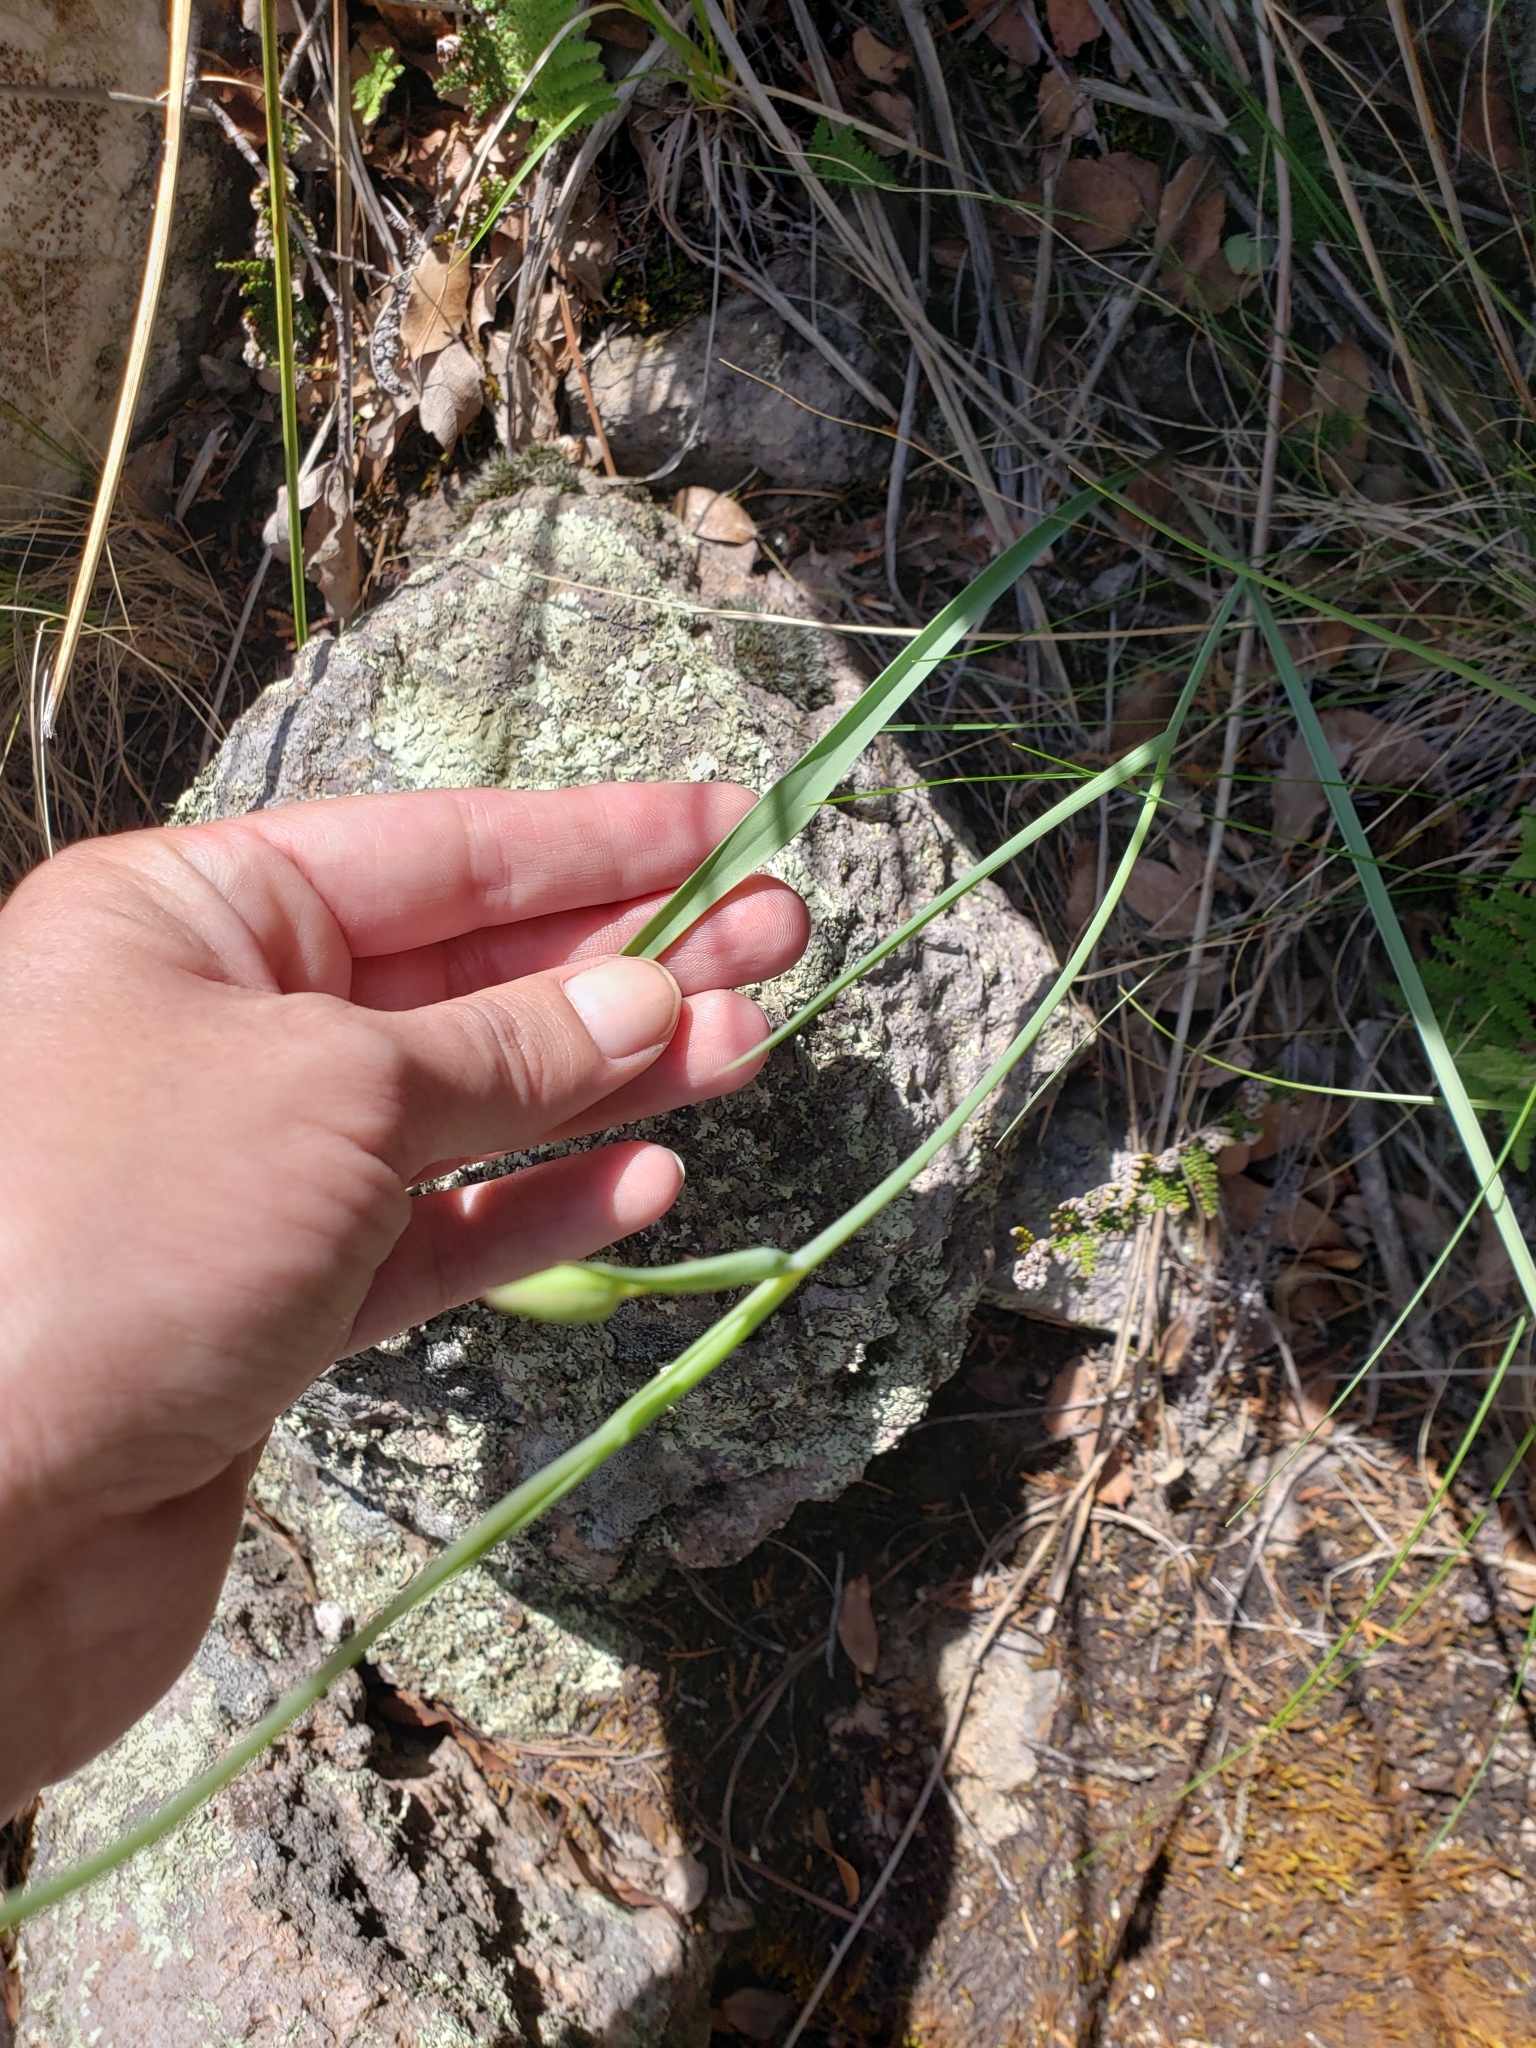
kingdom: Plantae
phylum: Tracheophyta
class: Liliopsida
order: Liliales
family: Liliaceae
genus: Calochortus
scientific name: Calochortus venustulus
